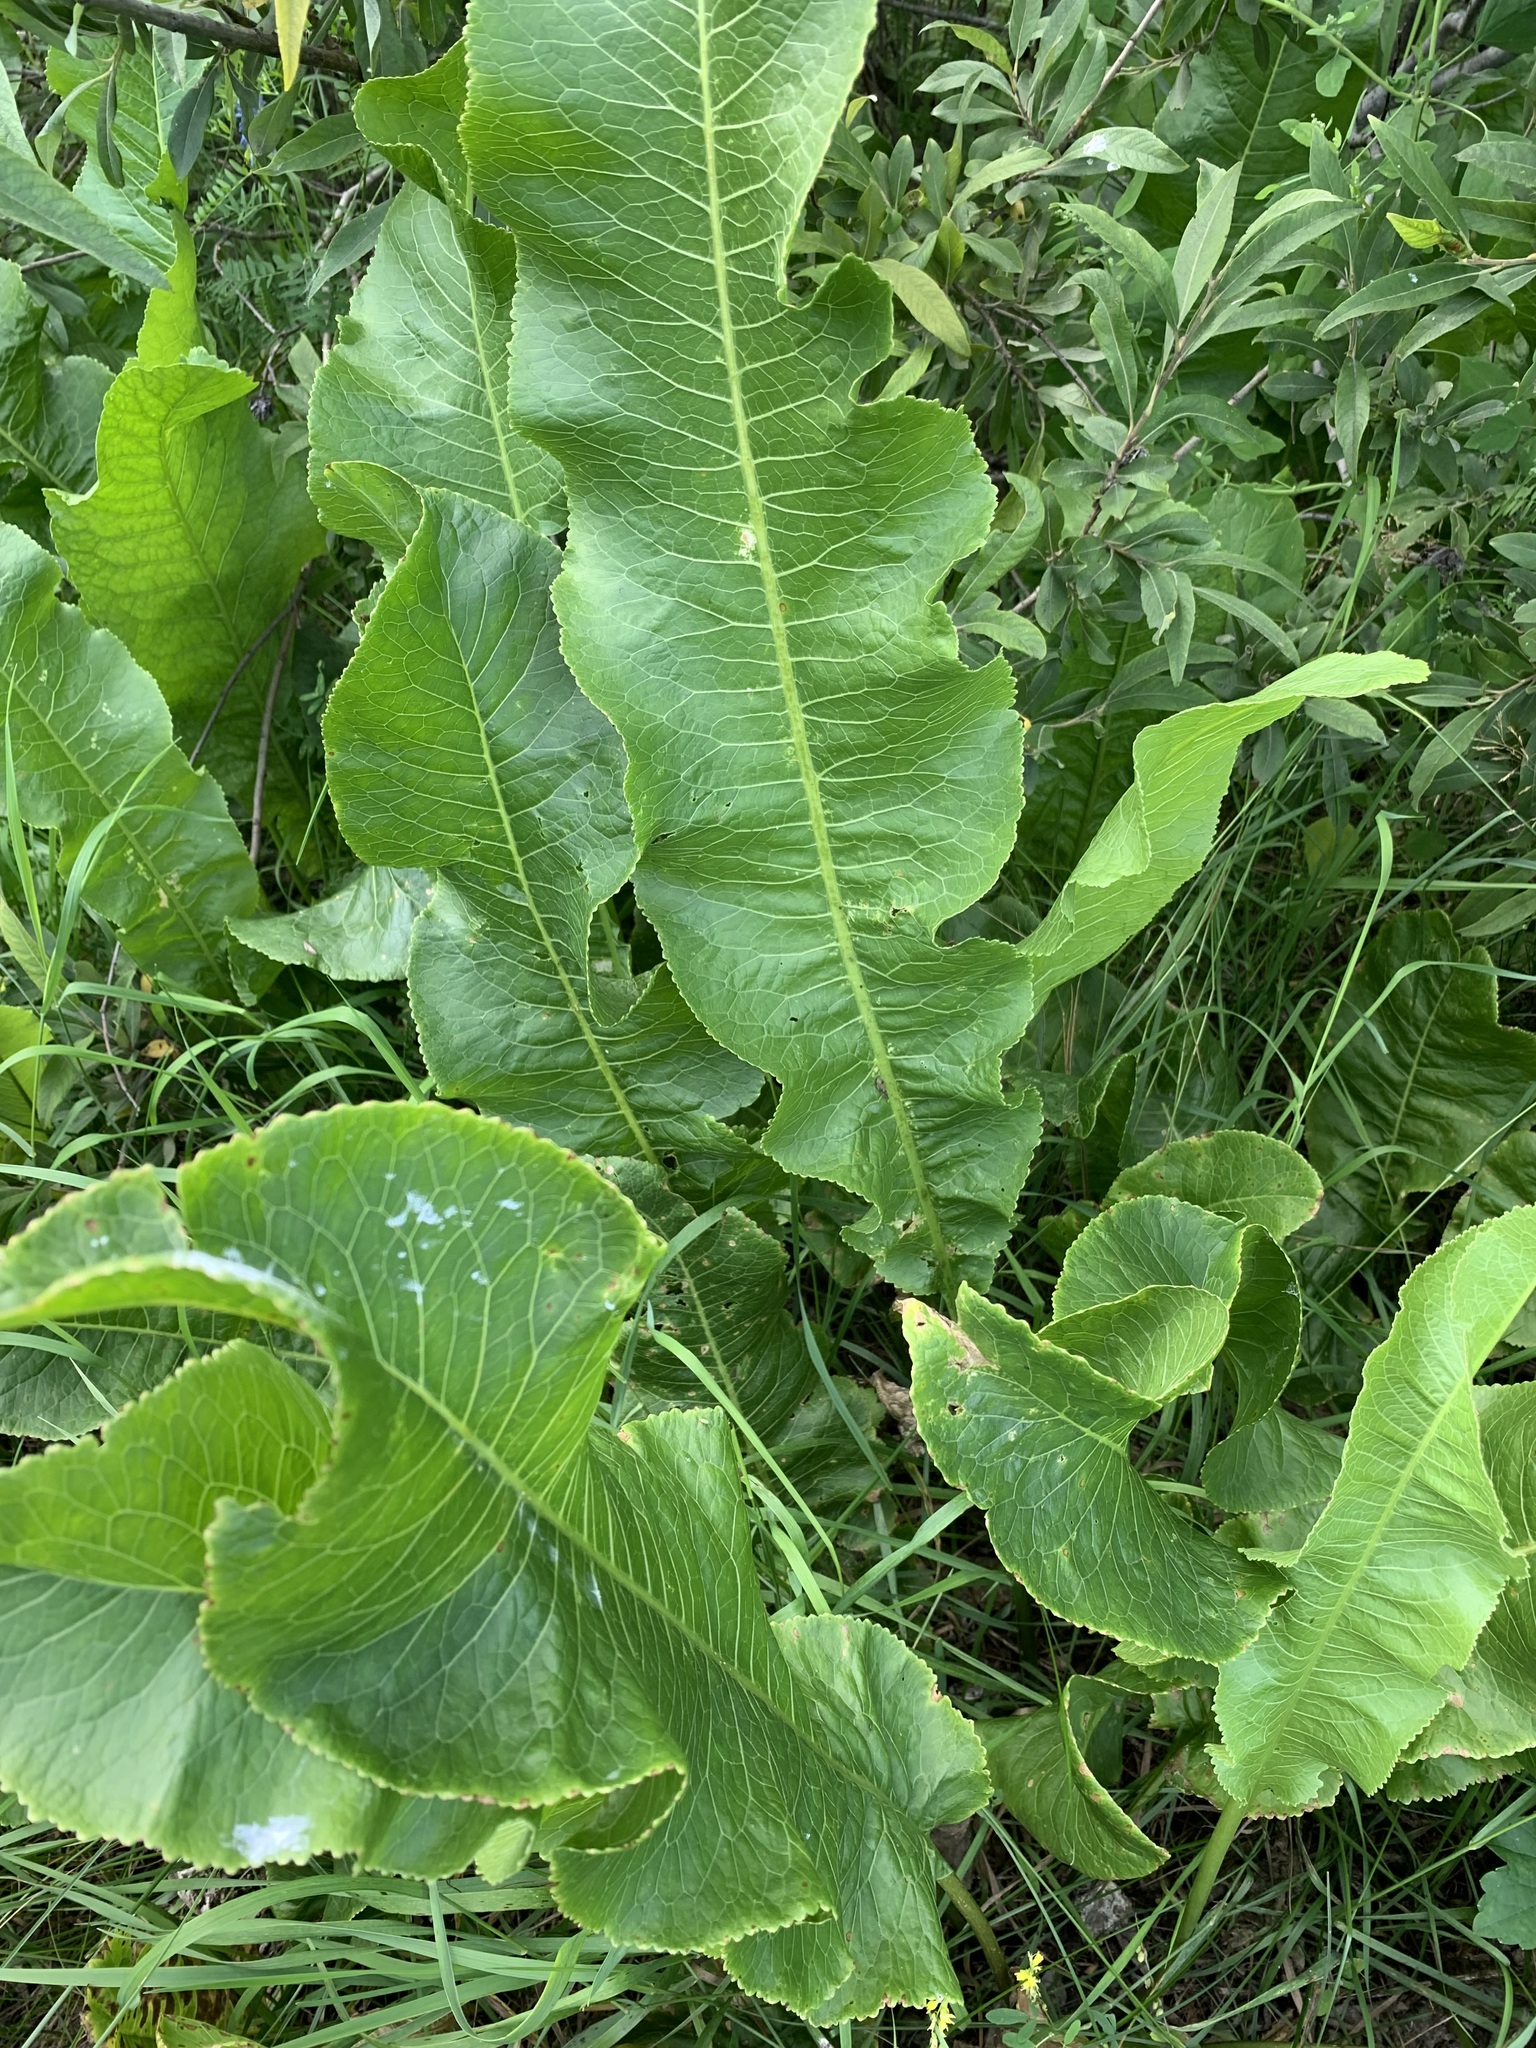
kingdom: Plantae
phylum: Tracheophyta
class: Magnoliopsida
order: Brassicales
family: Brassicaceae
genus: Armoracia
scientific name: Armoracia rusticana
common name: Horseradish
